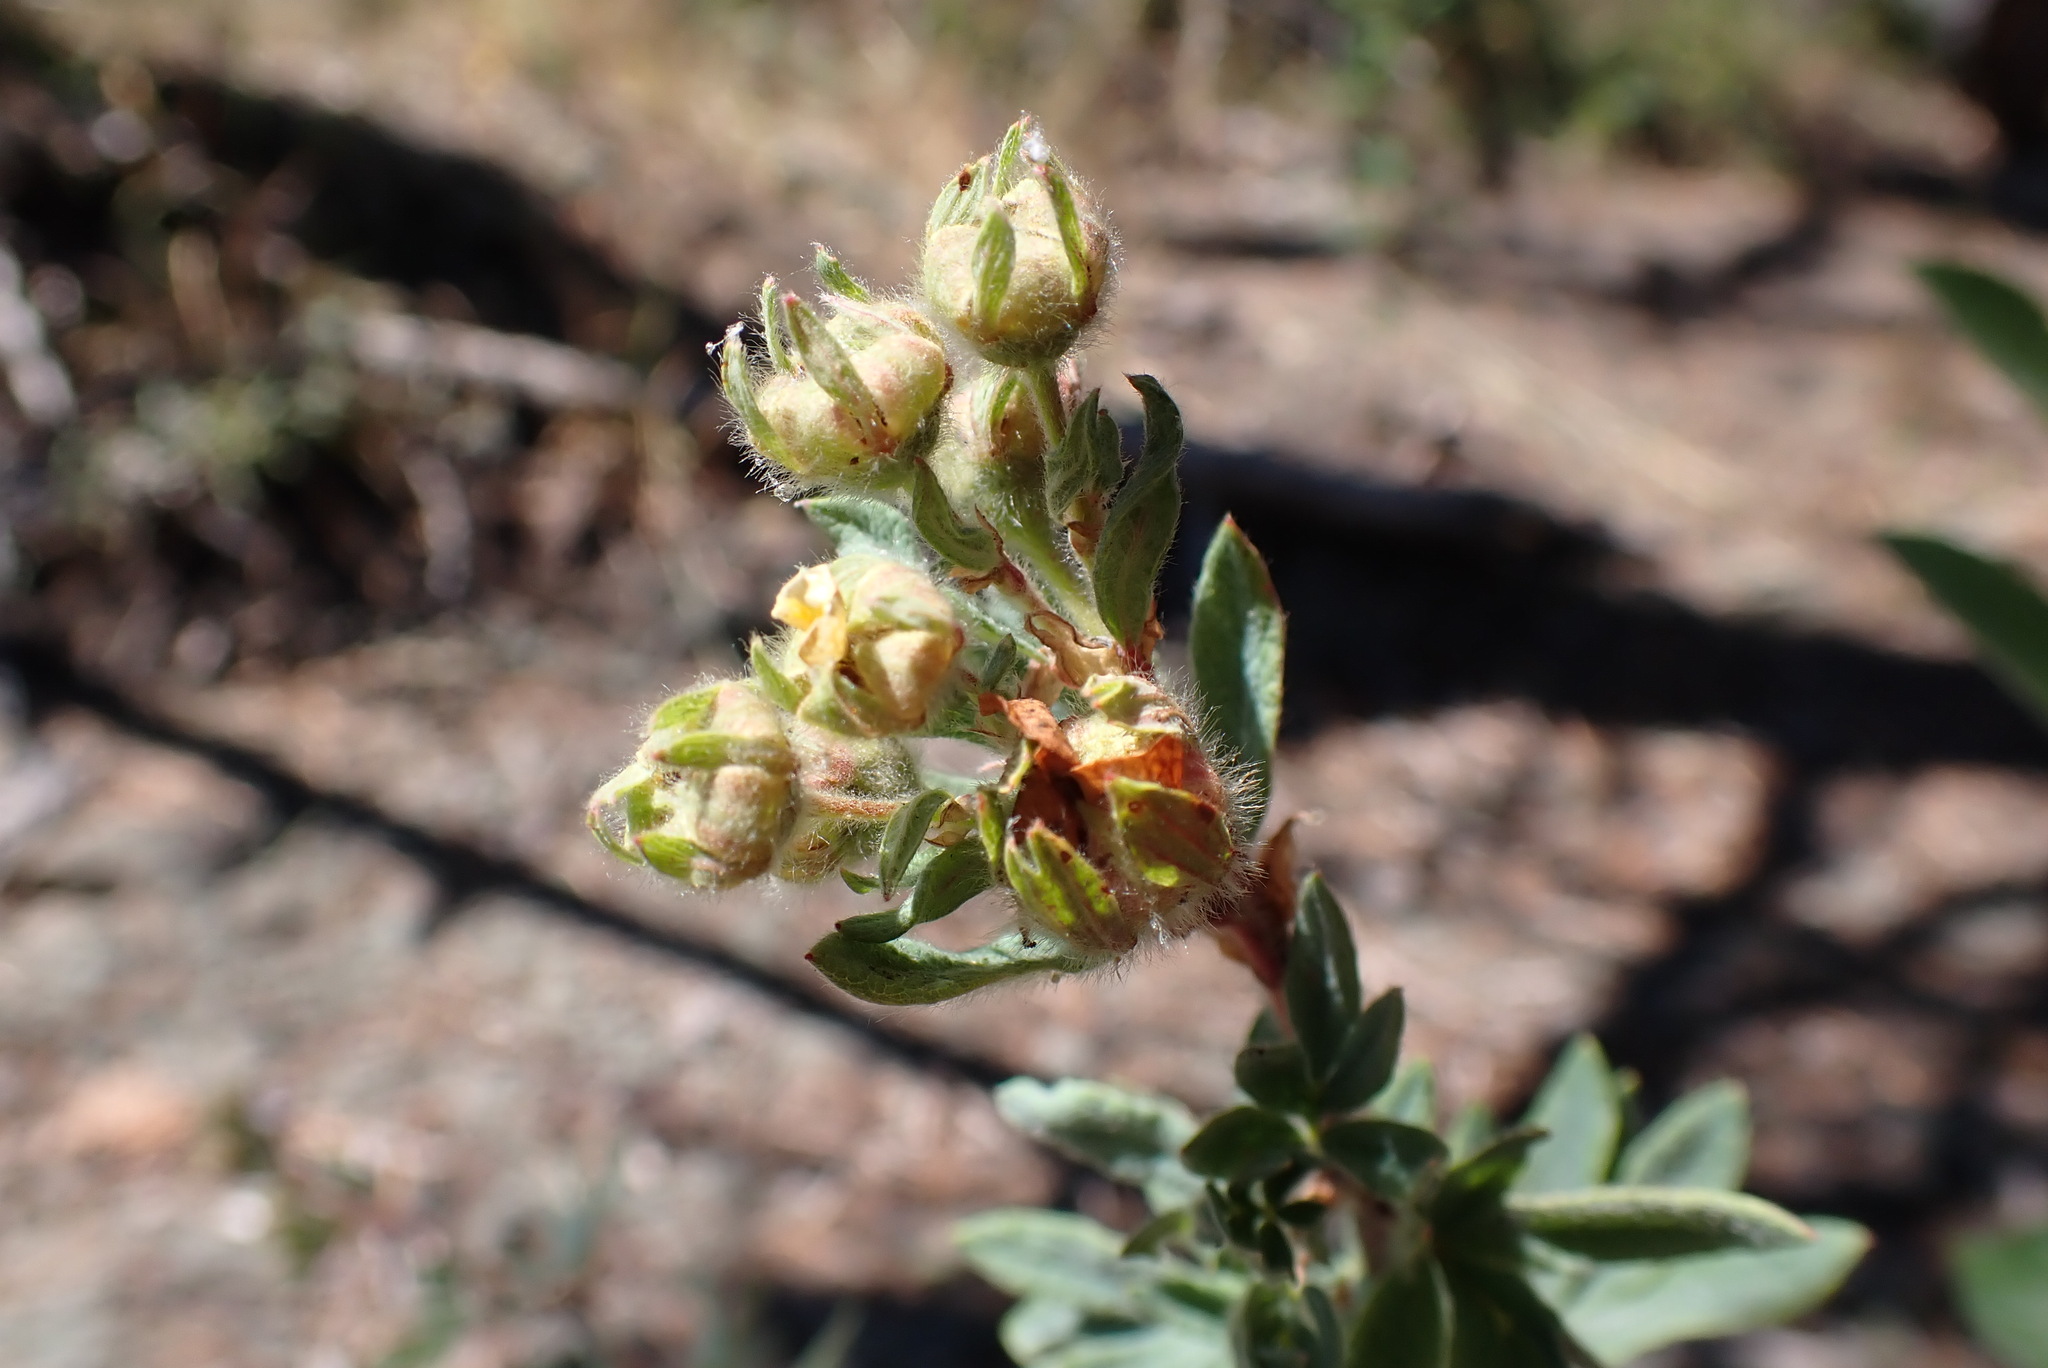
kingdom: Plantae
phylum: Tracheophyta
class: Magnoliopsida
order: Rosales
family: Rosaceae
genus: Dasiphora
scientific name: Dasiphora fruticosa
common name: Shrubby cinquefoil
